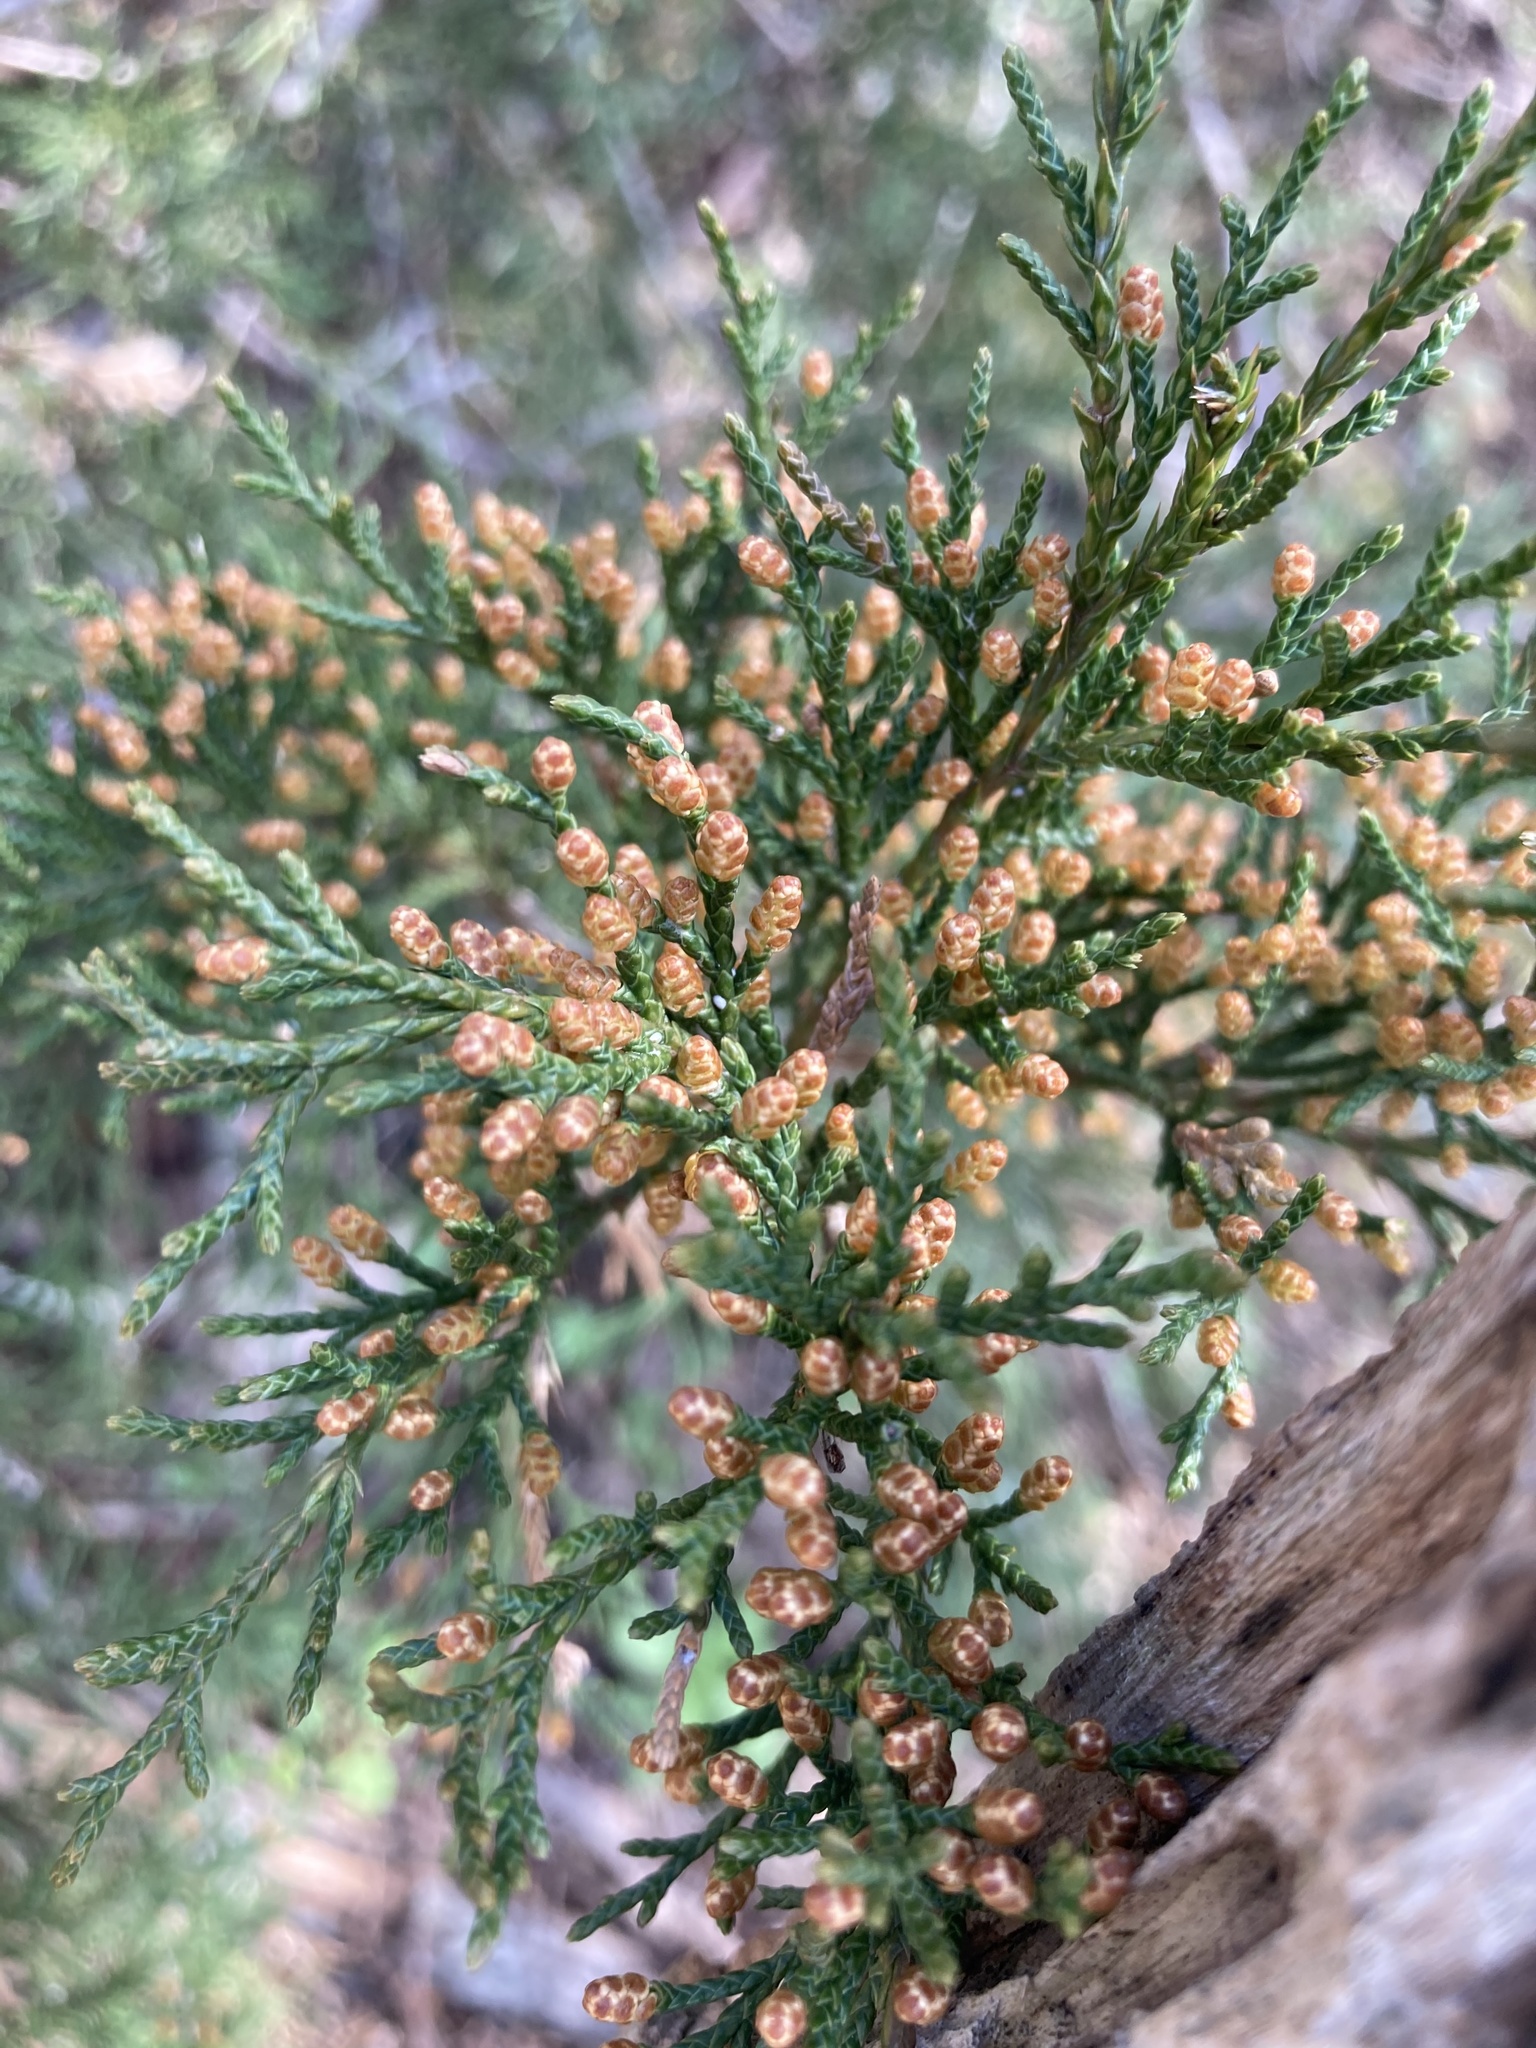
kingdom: Plantae
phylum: Tracheophyta
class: Pinopsida
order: Pinales
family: Cupressaceae
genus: Juniperus
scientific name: Juniperus virginiana
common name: Red juniper
